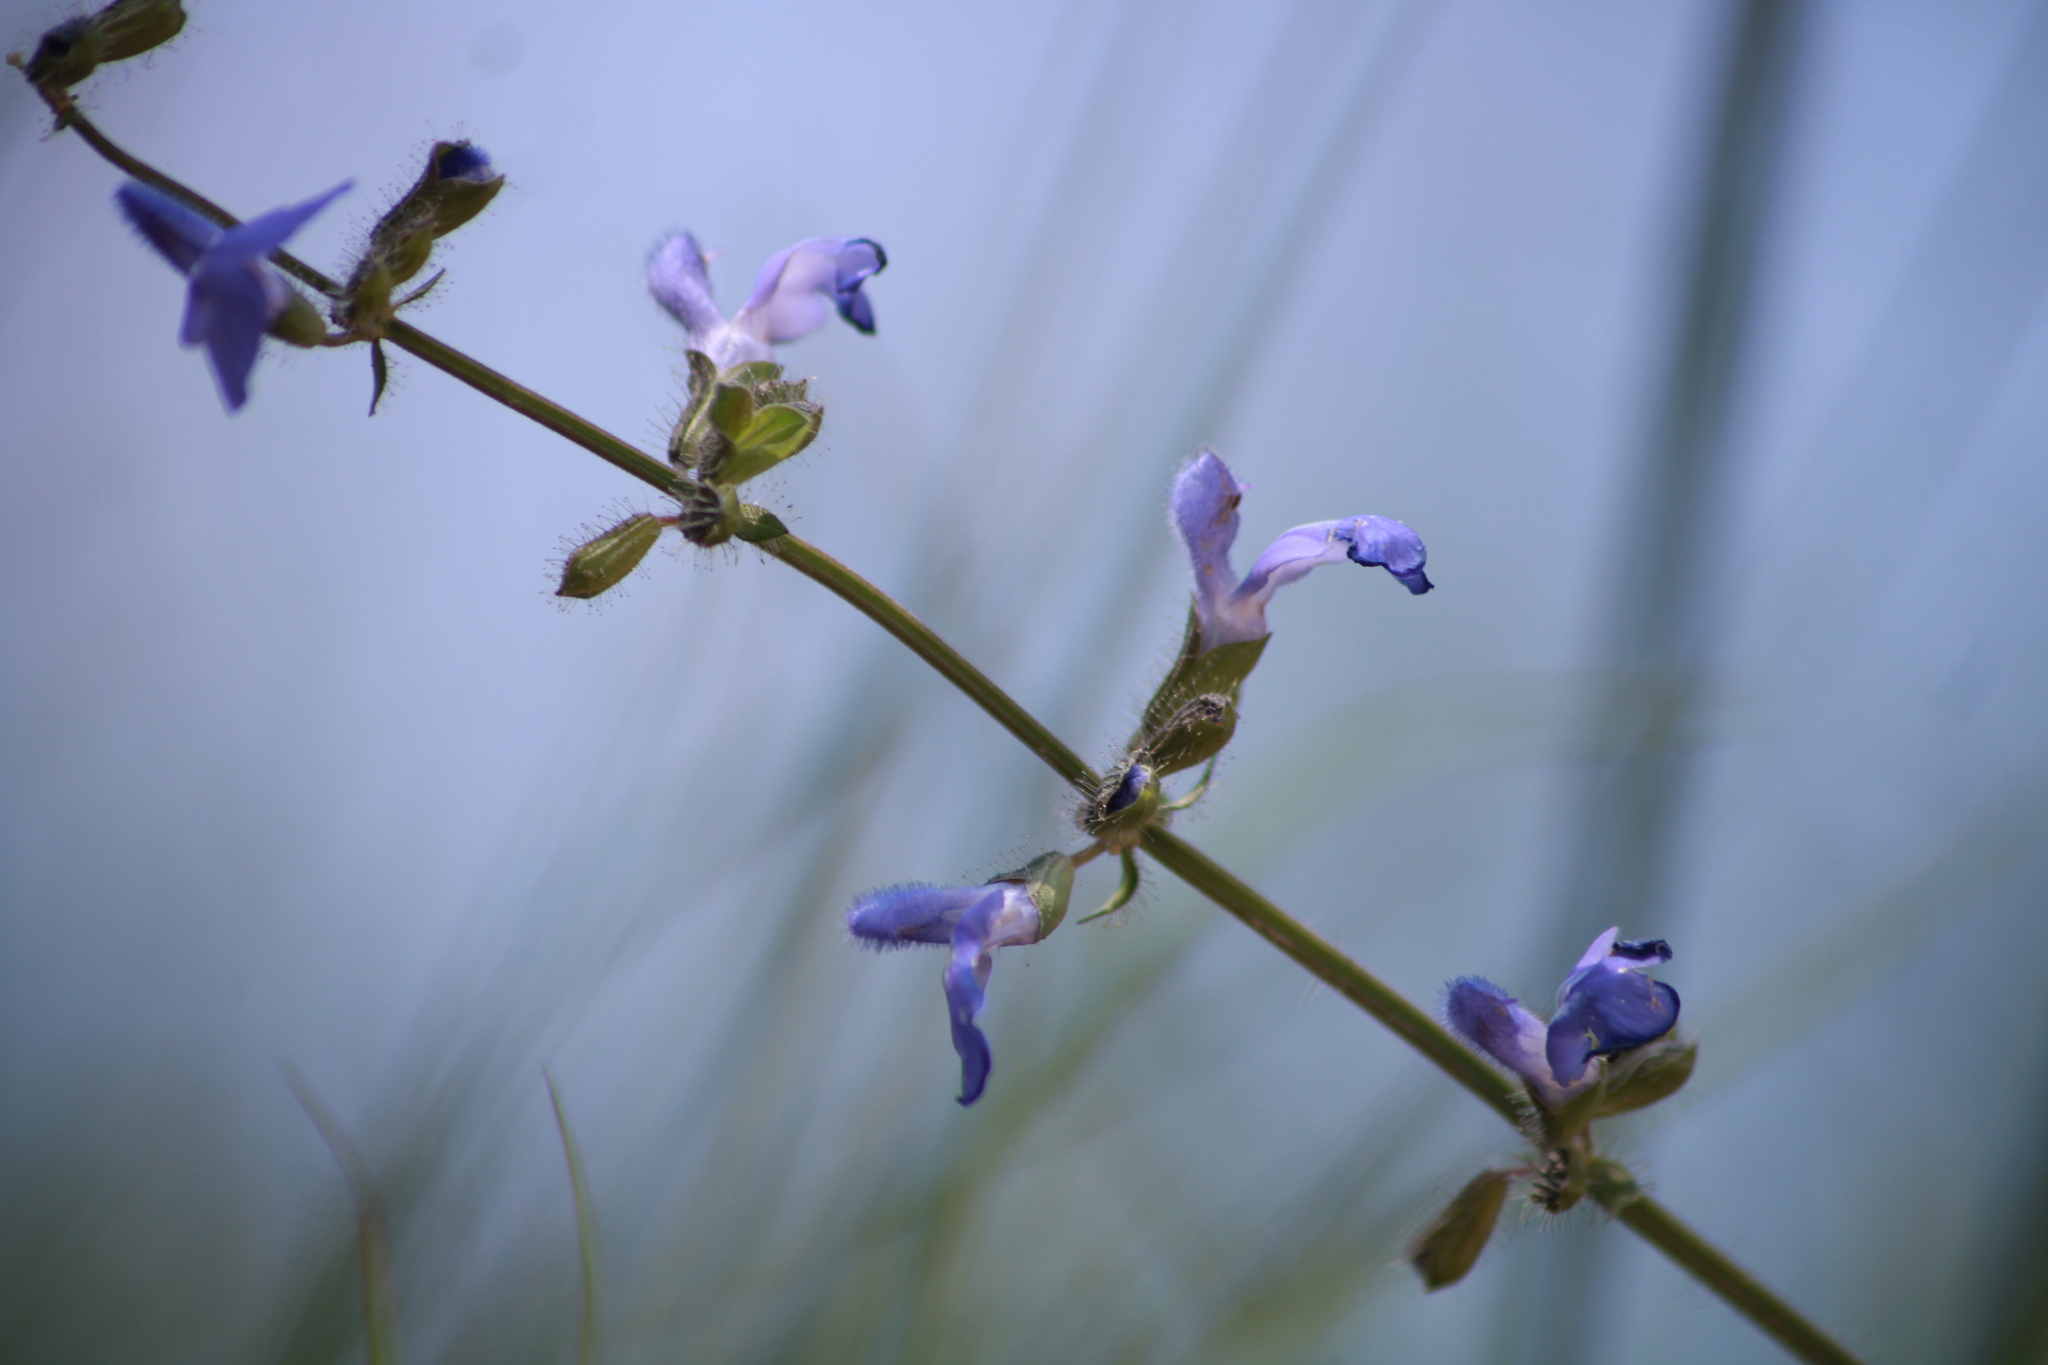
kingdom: Plantae
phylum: Tracheophyta
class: Magnoliopsida
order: Lamiales
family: Lamiaceae
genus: Salvia
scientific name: Salvia heterotricha
